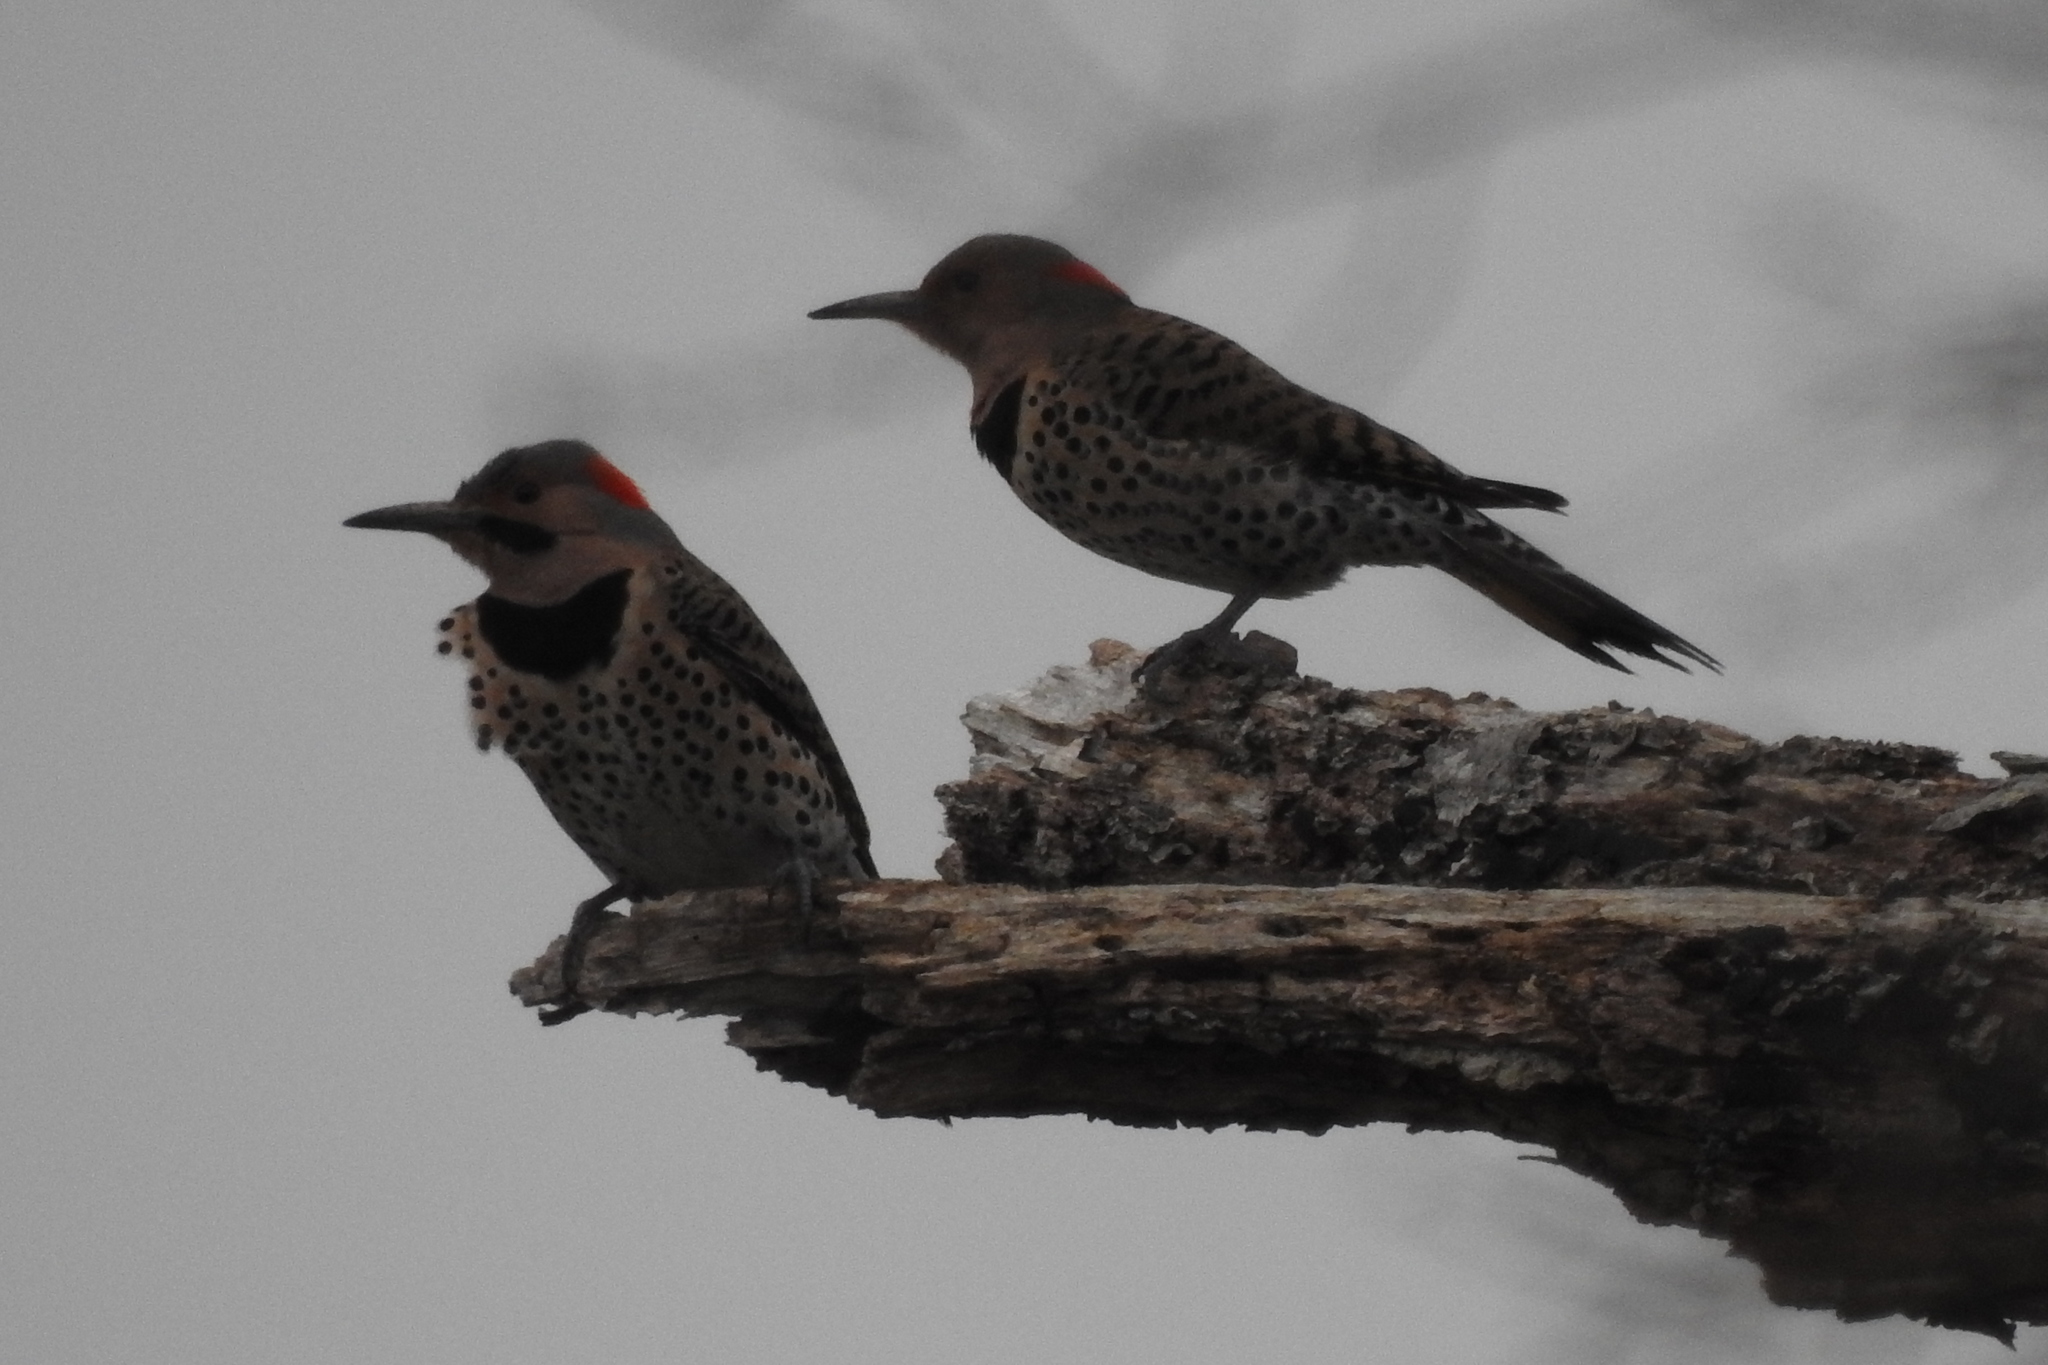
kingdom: Animalia
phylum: Chordata
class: Aves
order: Piciformes
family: Picidae
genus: Colaptes
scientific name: Colaptes auratus
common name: Northern flicker
